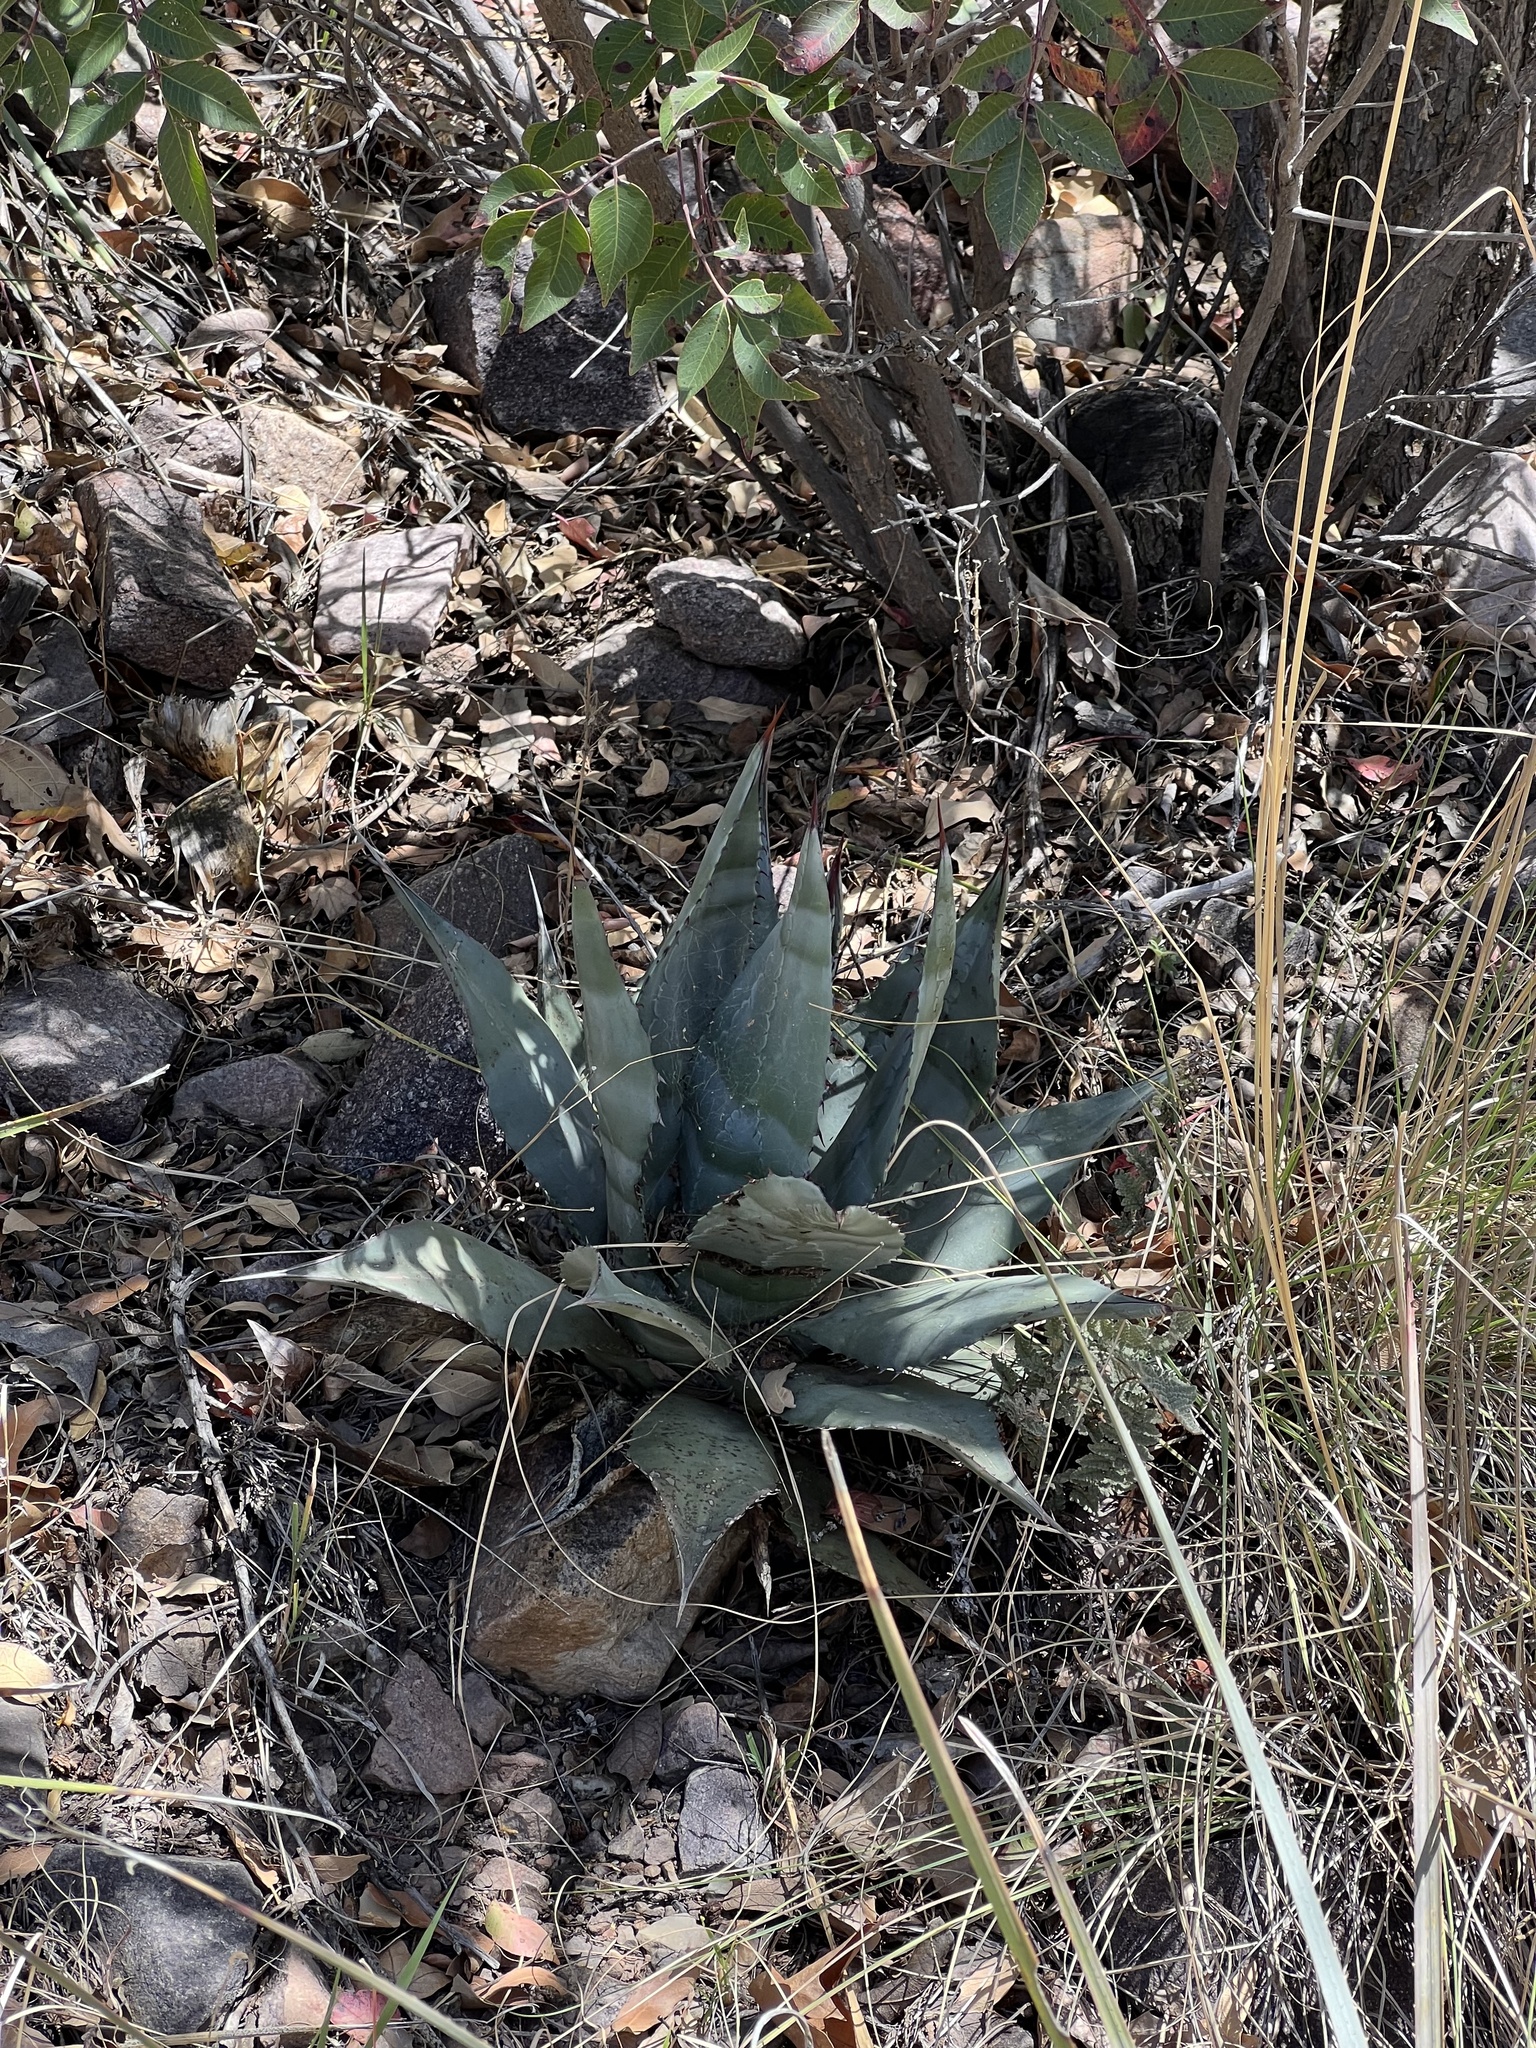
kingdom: Plantae
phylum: Tracheophyta
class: Liliopsida
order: Asparagales
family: Asparagaceae
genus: Agave
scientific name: Agave parryi
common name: Parry's agave
